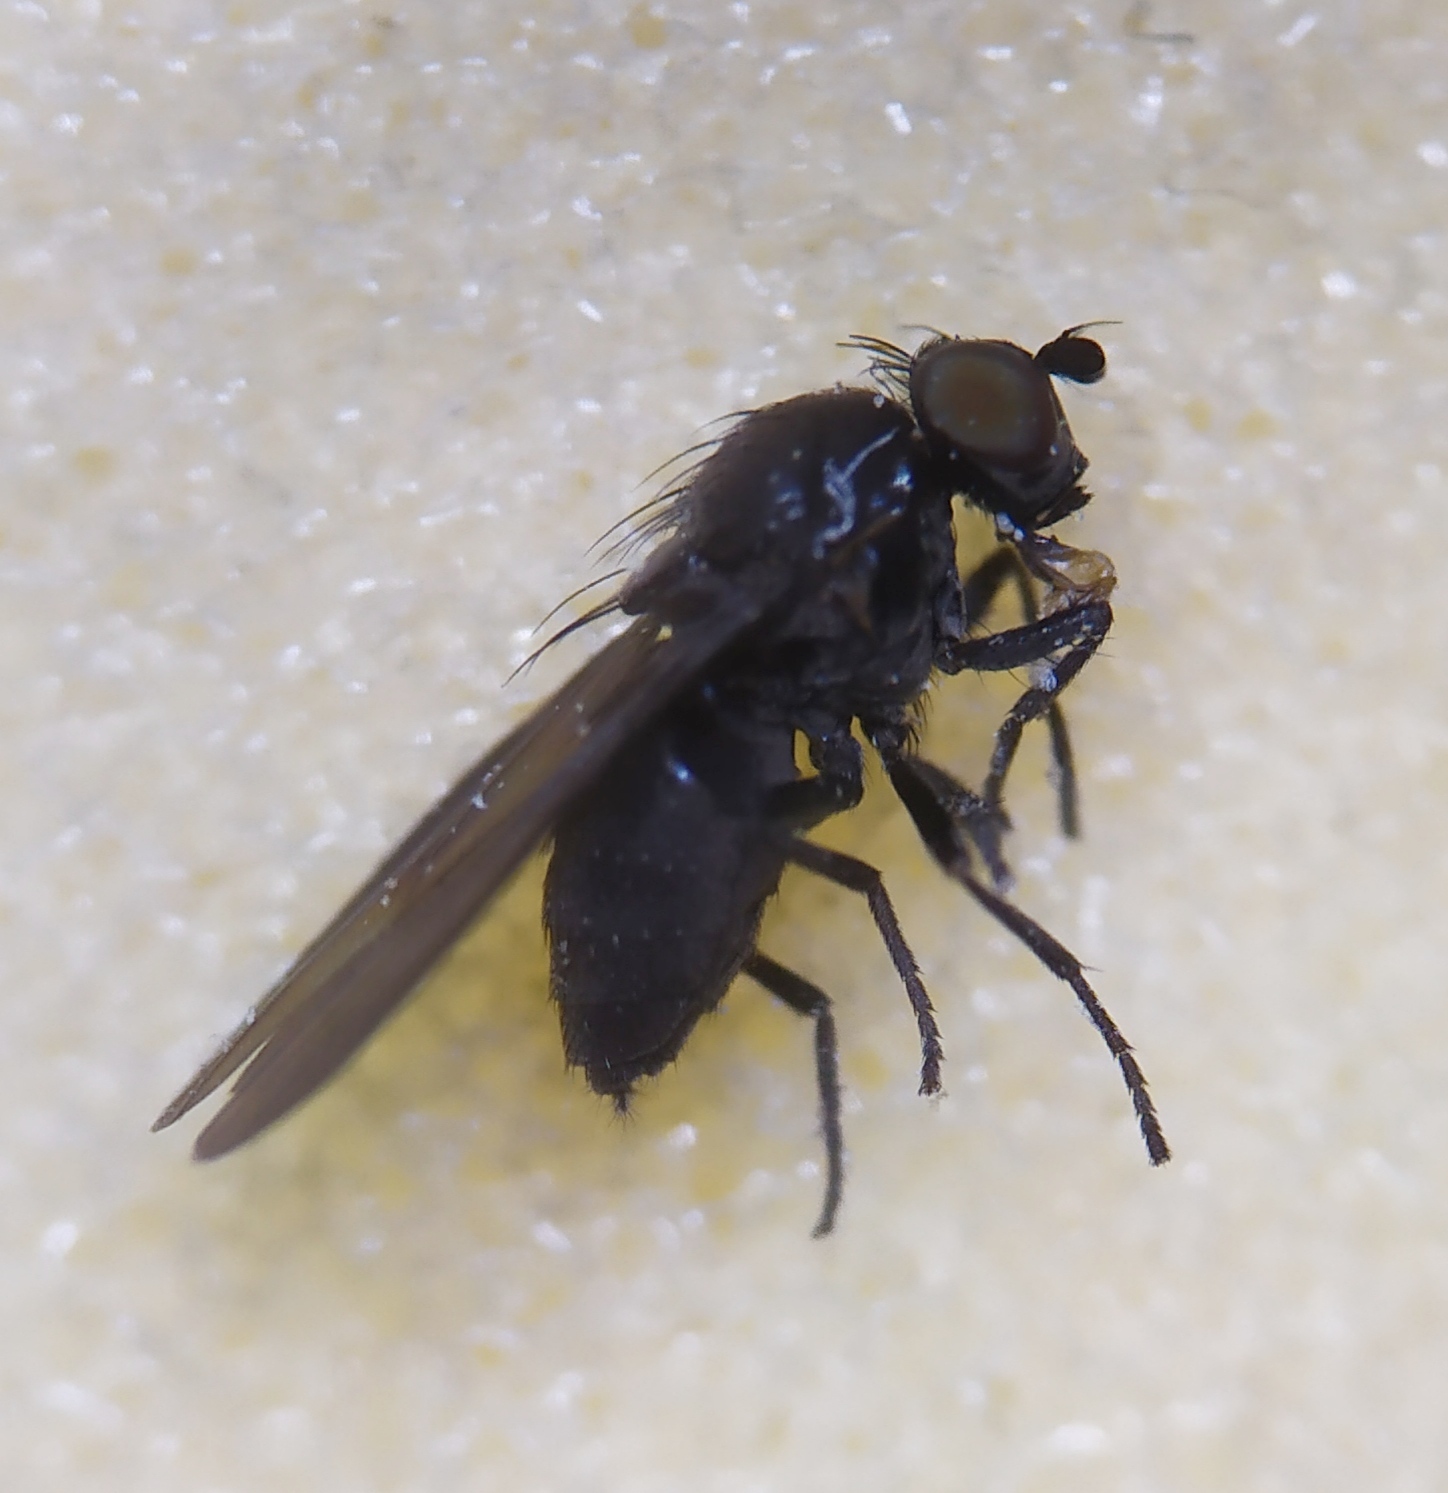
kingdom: Animalia
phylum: Arthropoda
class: Insecta
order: Diptera
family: Lauxaniidae
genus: Cnemacantha
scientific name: Cnemacantha muscaria
